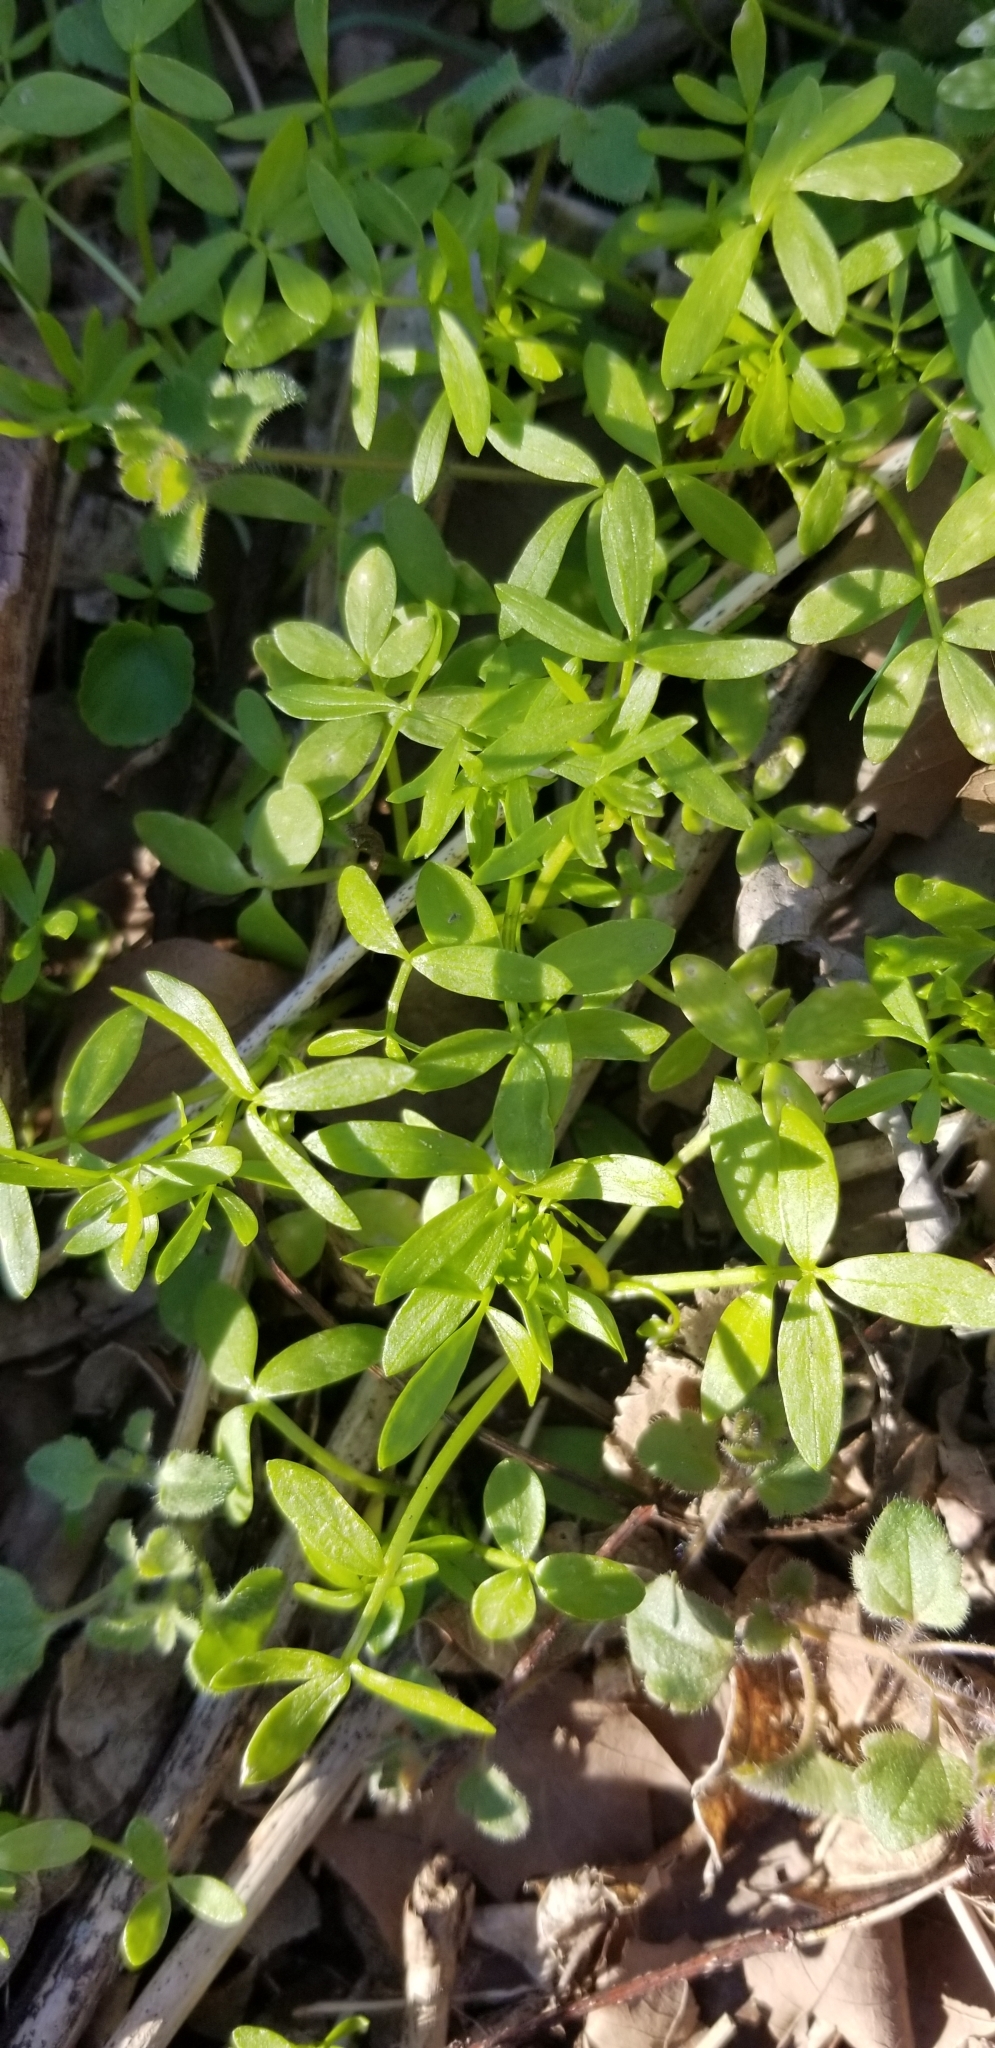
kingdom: Plantae
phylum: Tracheophyta
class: Magnoliopsida
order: Brassicales
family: Limnanthaceae
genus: Floerkea
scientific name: Floerkea proserpinacoides
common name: False mermaid
